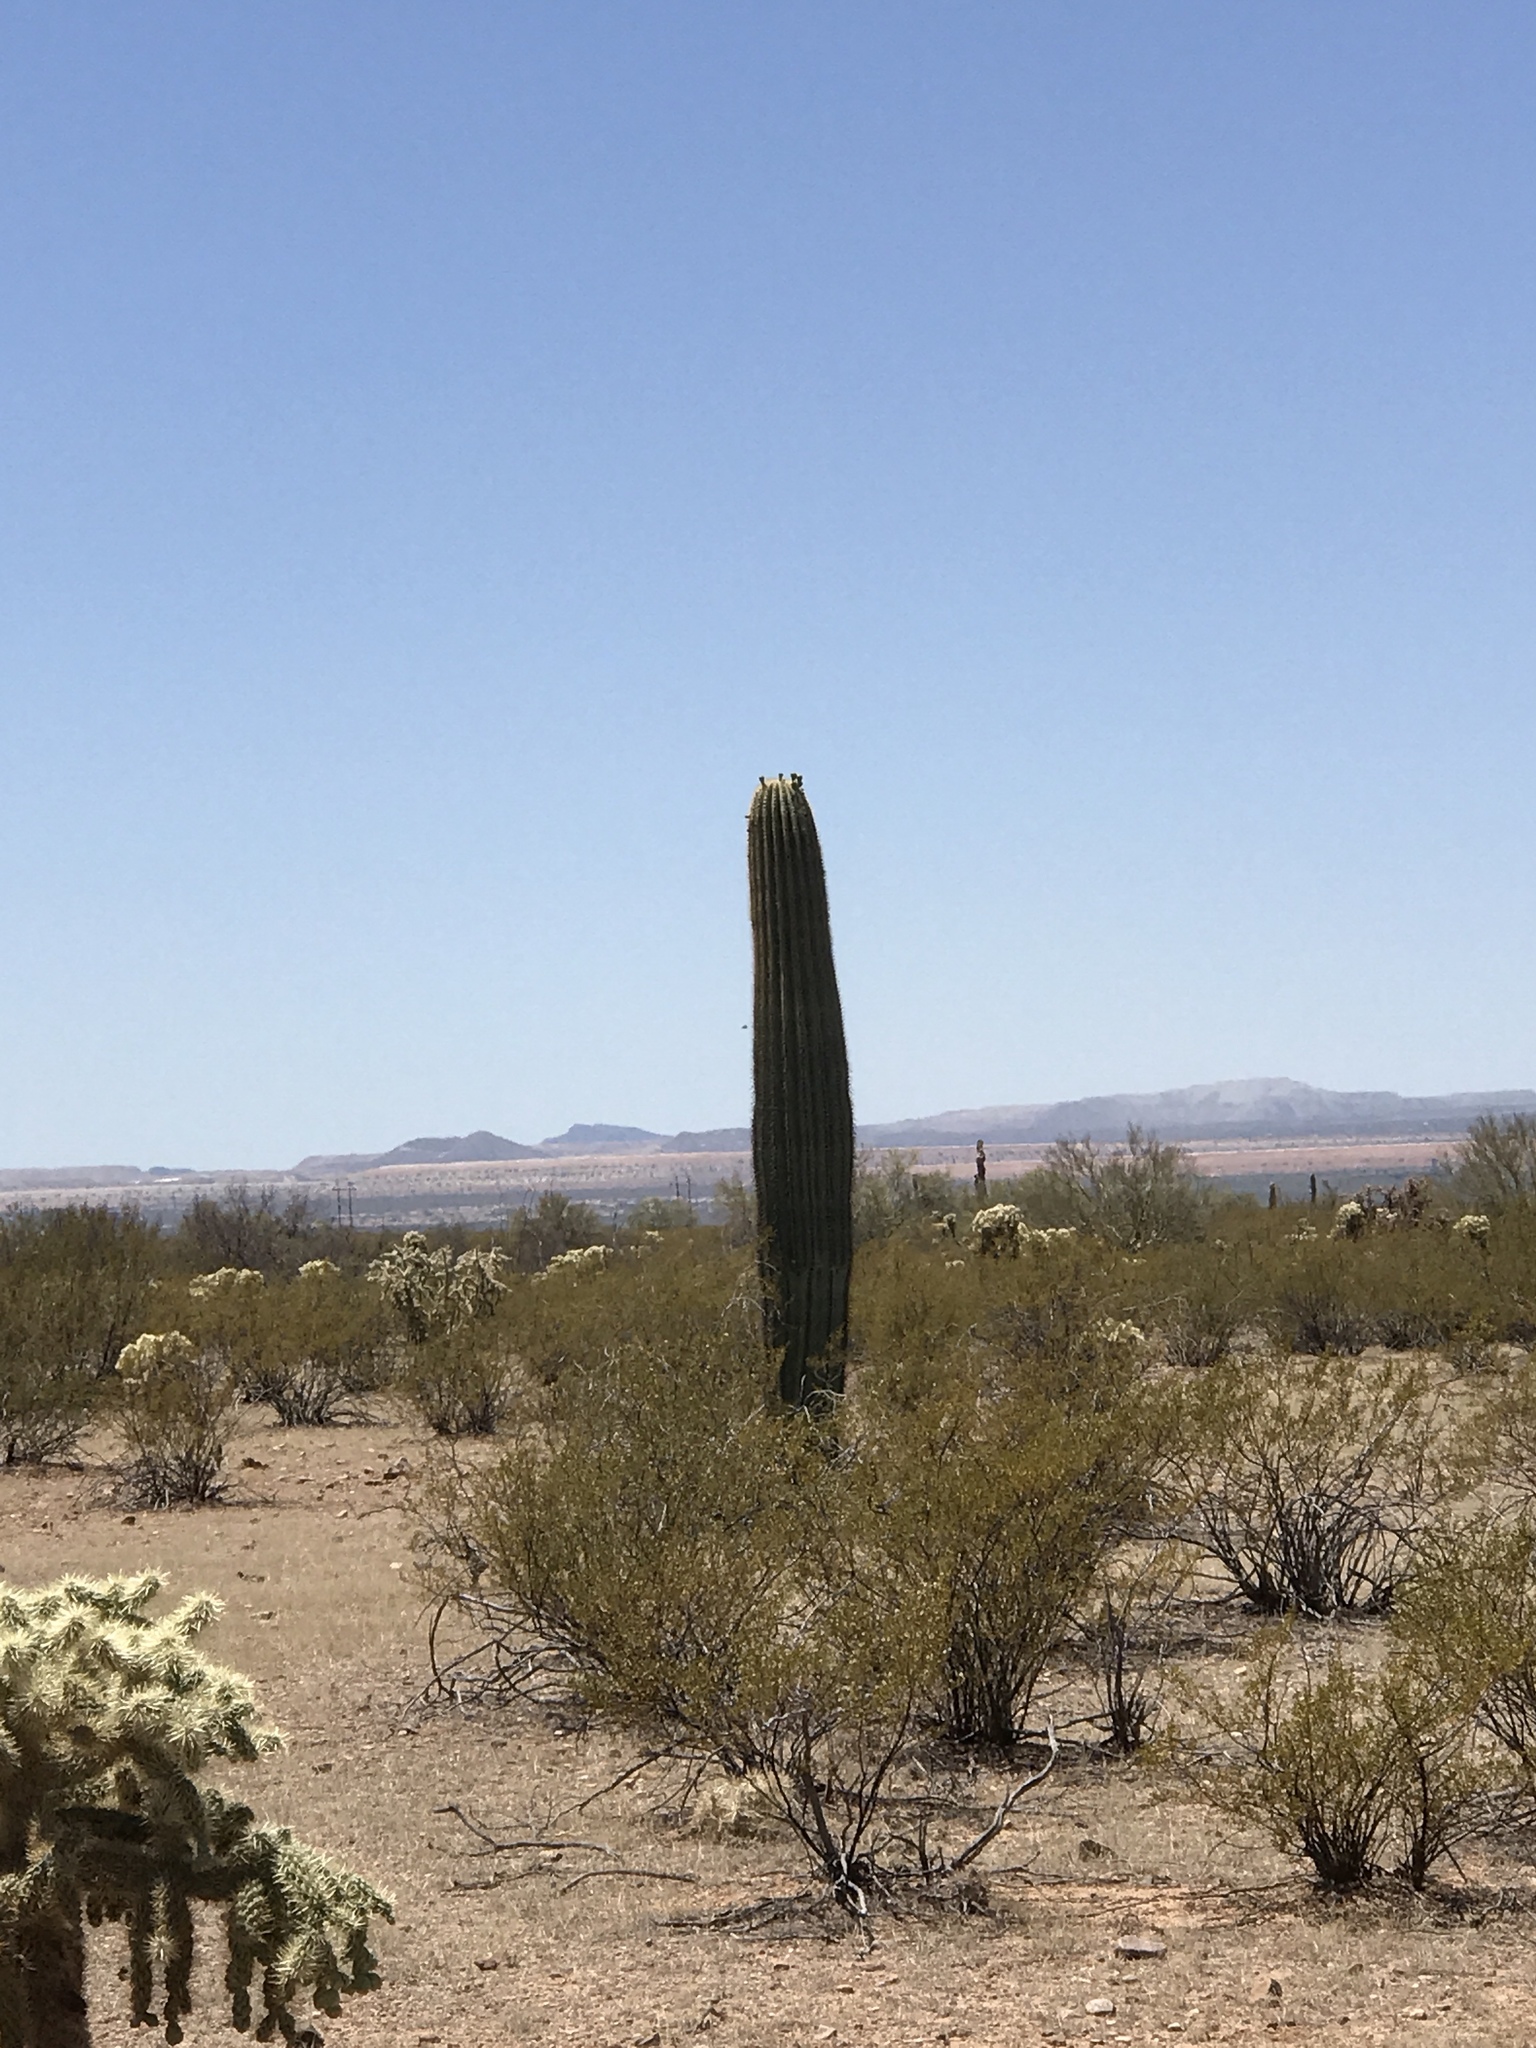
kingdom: Plantae
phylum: Tracheophyta
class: Magnoliopsida
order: Caryophyllales
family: Cactaceae
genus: Carnegiea
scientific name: Carnegiea gigantea
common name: Saguaro
